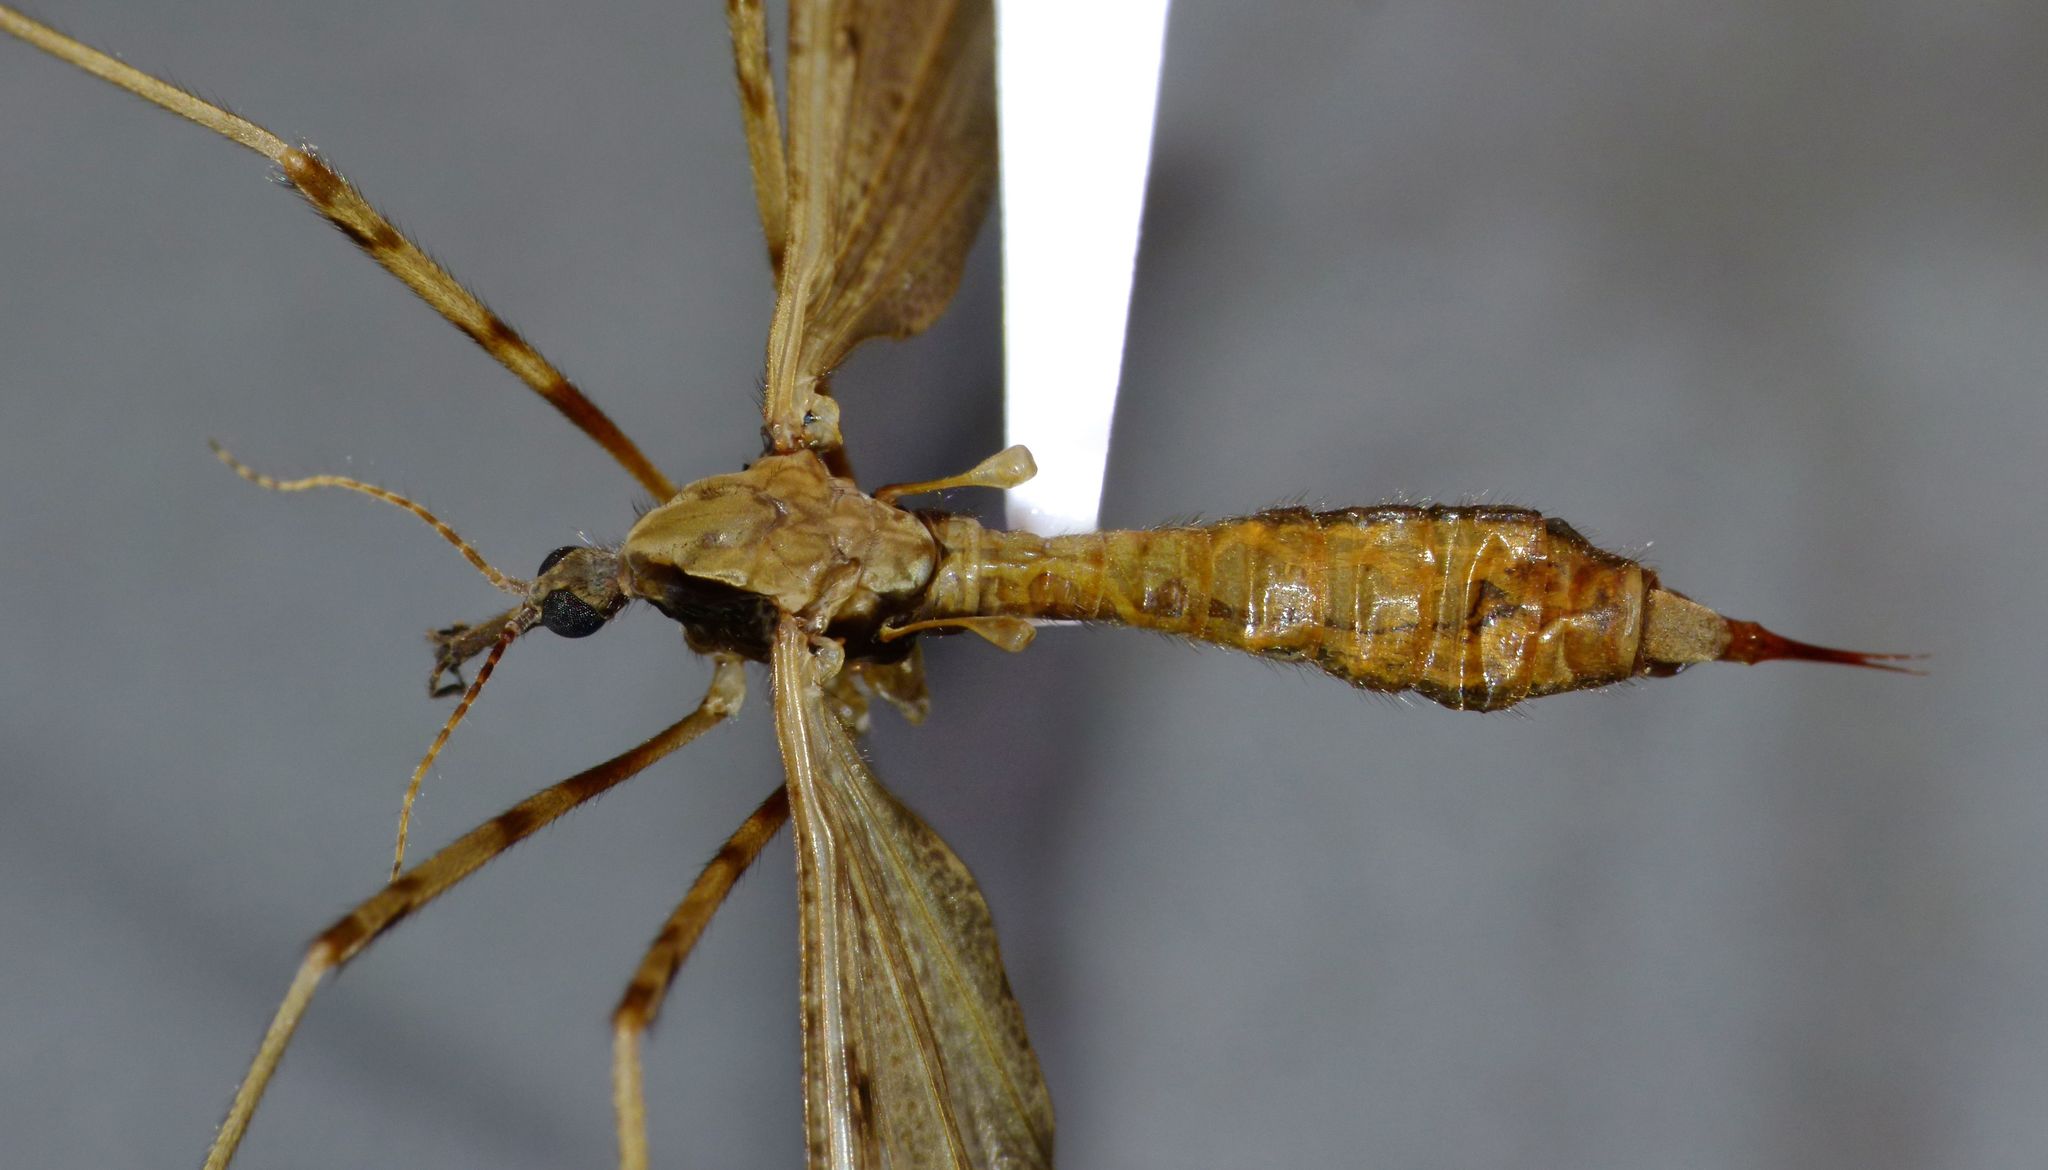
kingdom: Animalia
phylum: Arthropoda
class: Insecta
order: Diptera
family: Limoniidae
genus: Rhamphophila
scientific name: Rhamphophila sinistra
